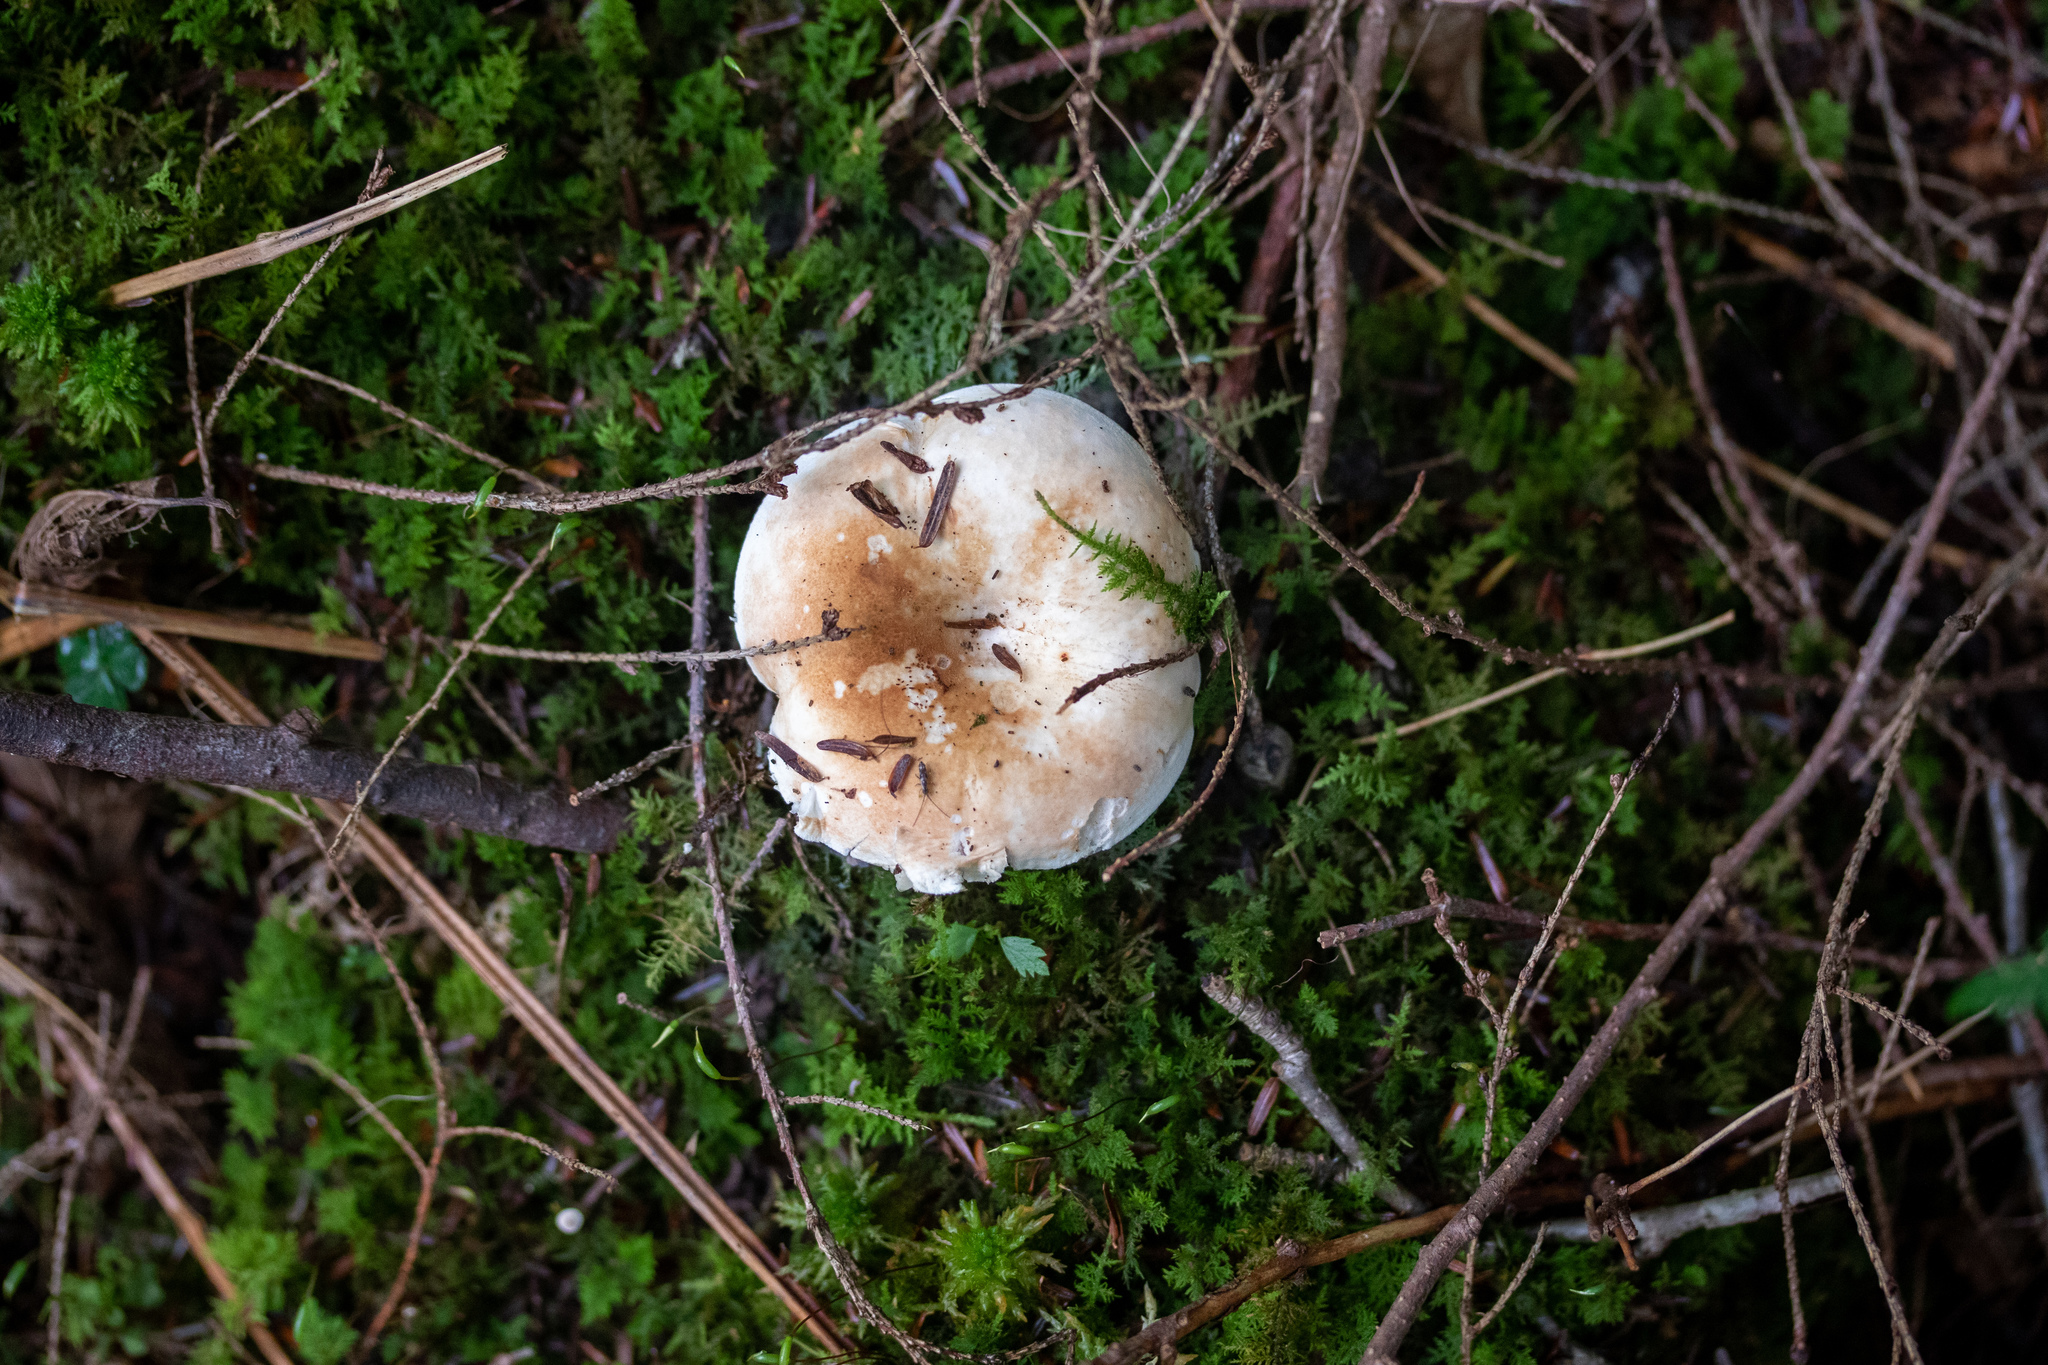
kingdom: Fungi
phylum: Basidiomycota
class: Agaricomycetes
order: Russulales
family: Russulaceae
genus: Russula
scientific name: Russula compacta
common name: Fishbiscuit russula
